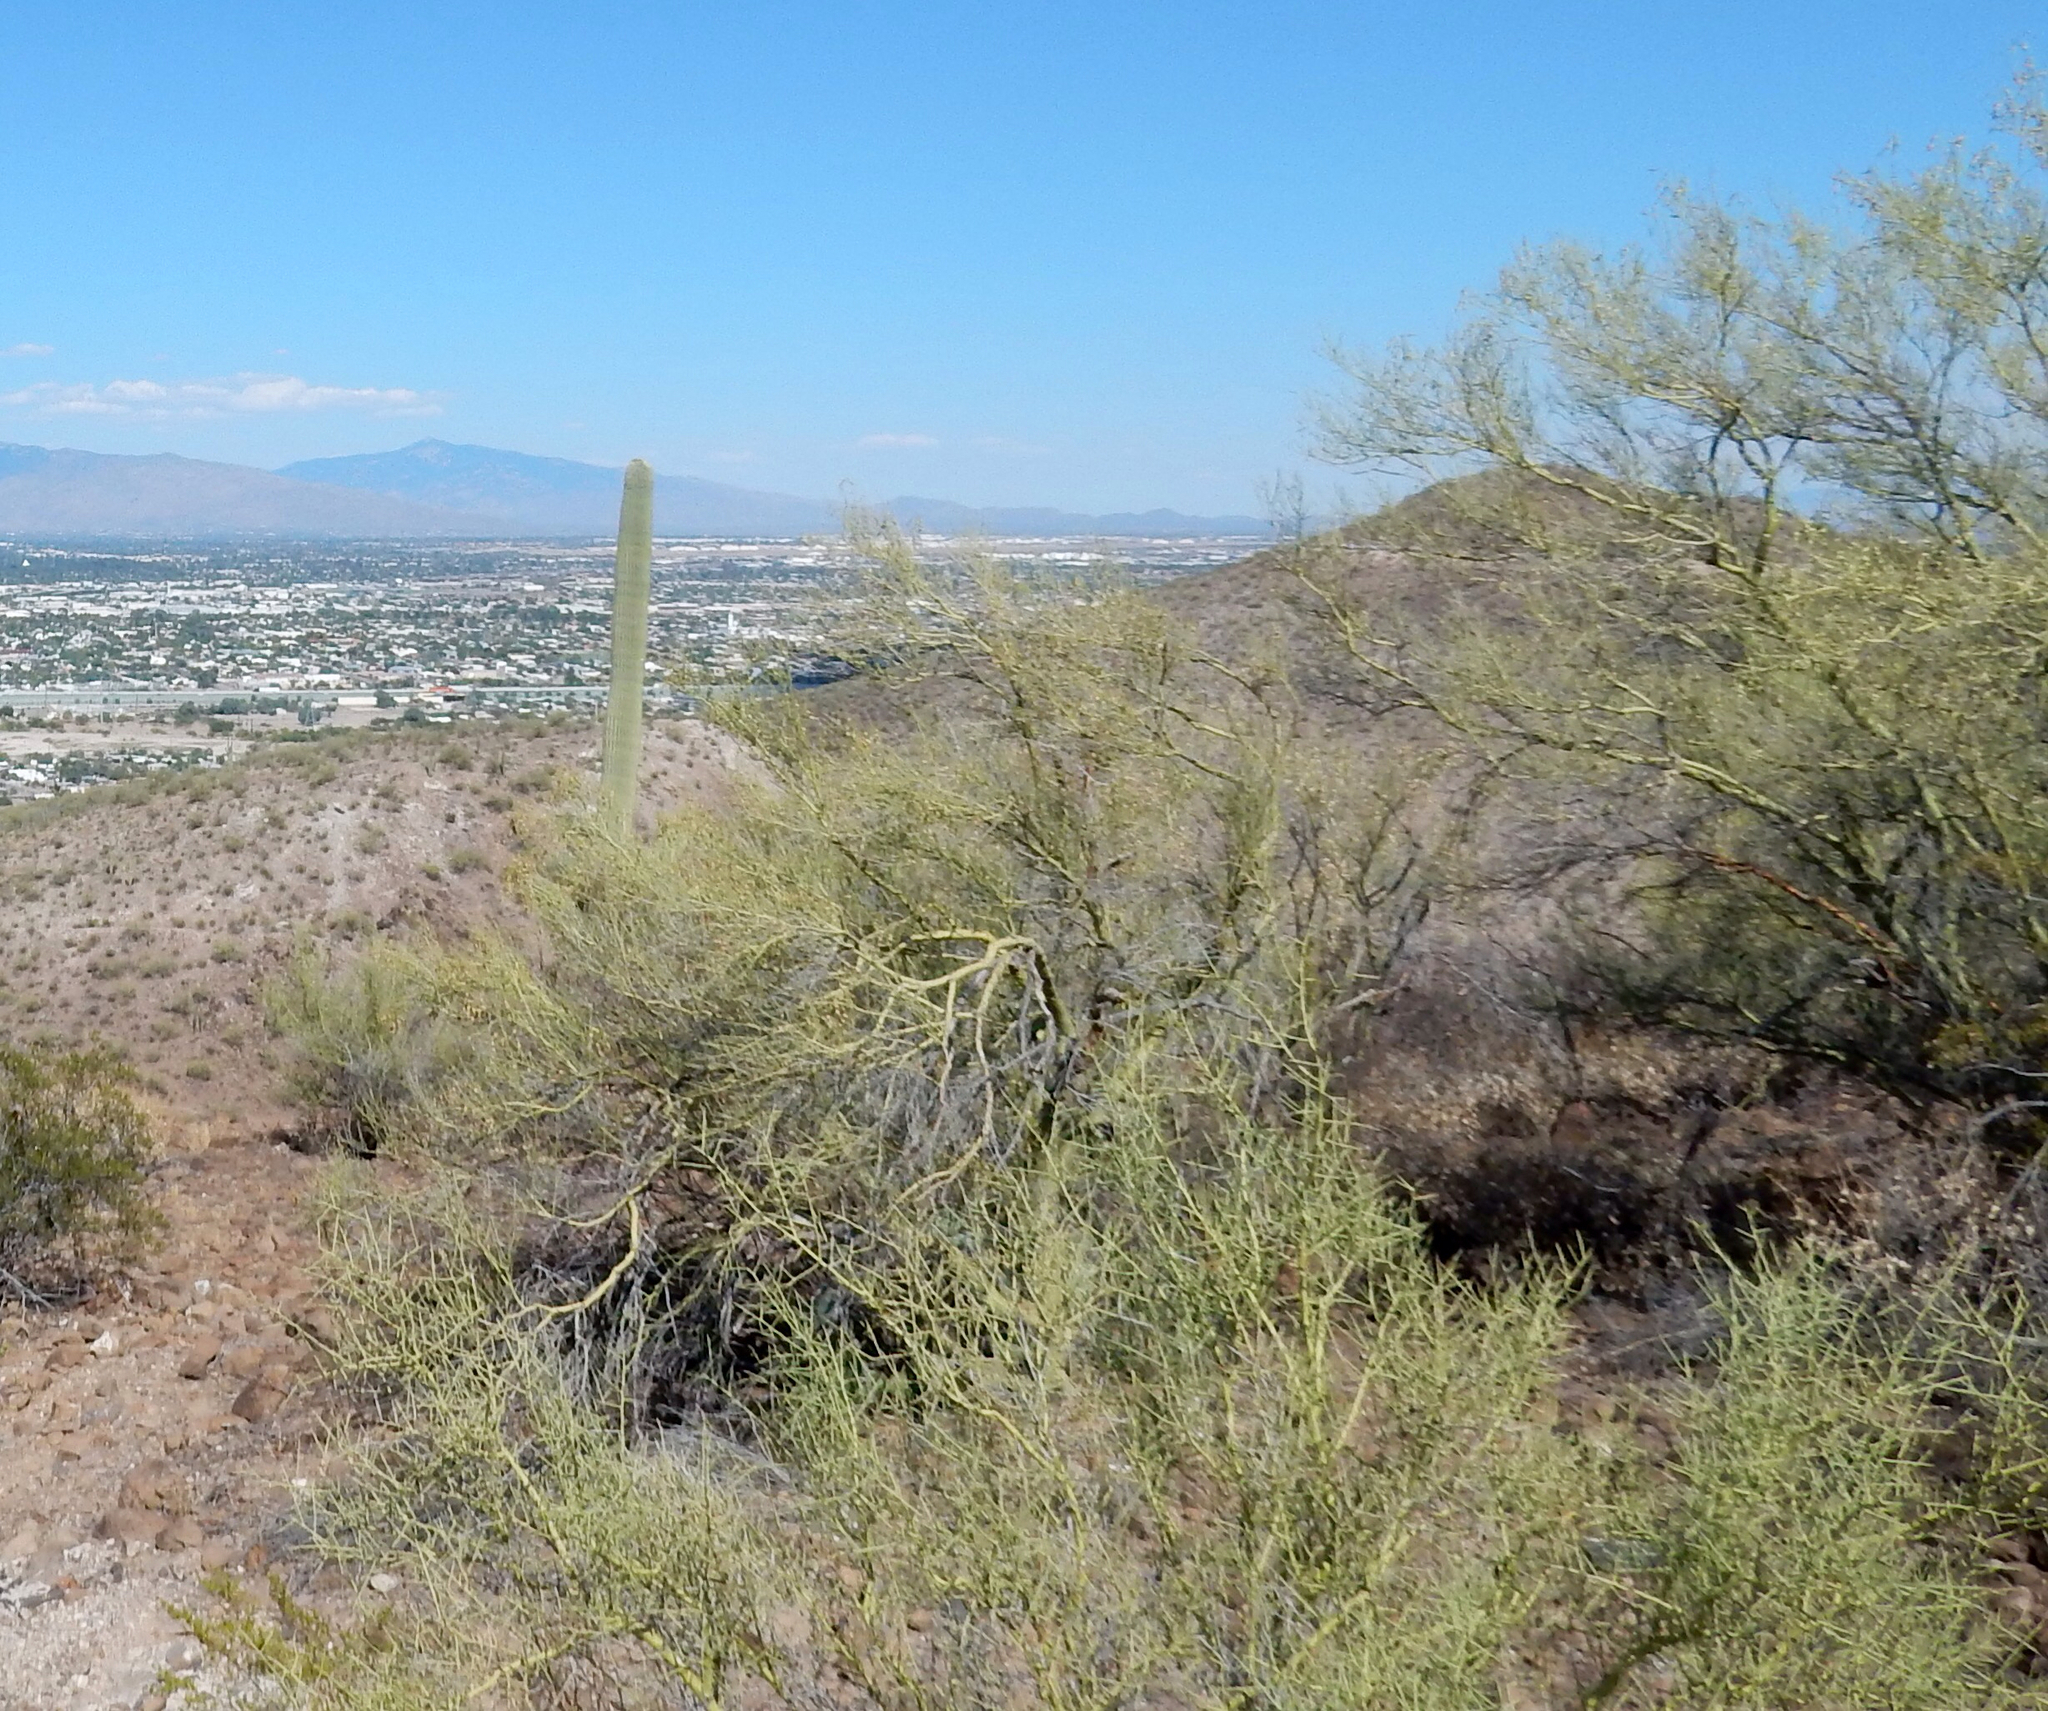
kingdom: Plantae
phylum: Tracheophyta
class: Magnoliopsida
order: Fabales
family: Fabaceae
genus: Parkinsonia
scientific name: Parkinsonia microphylla
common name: Yellow paloverde
